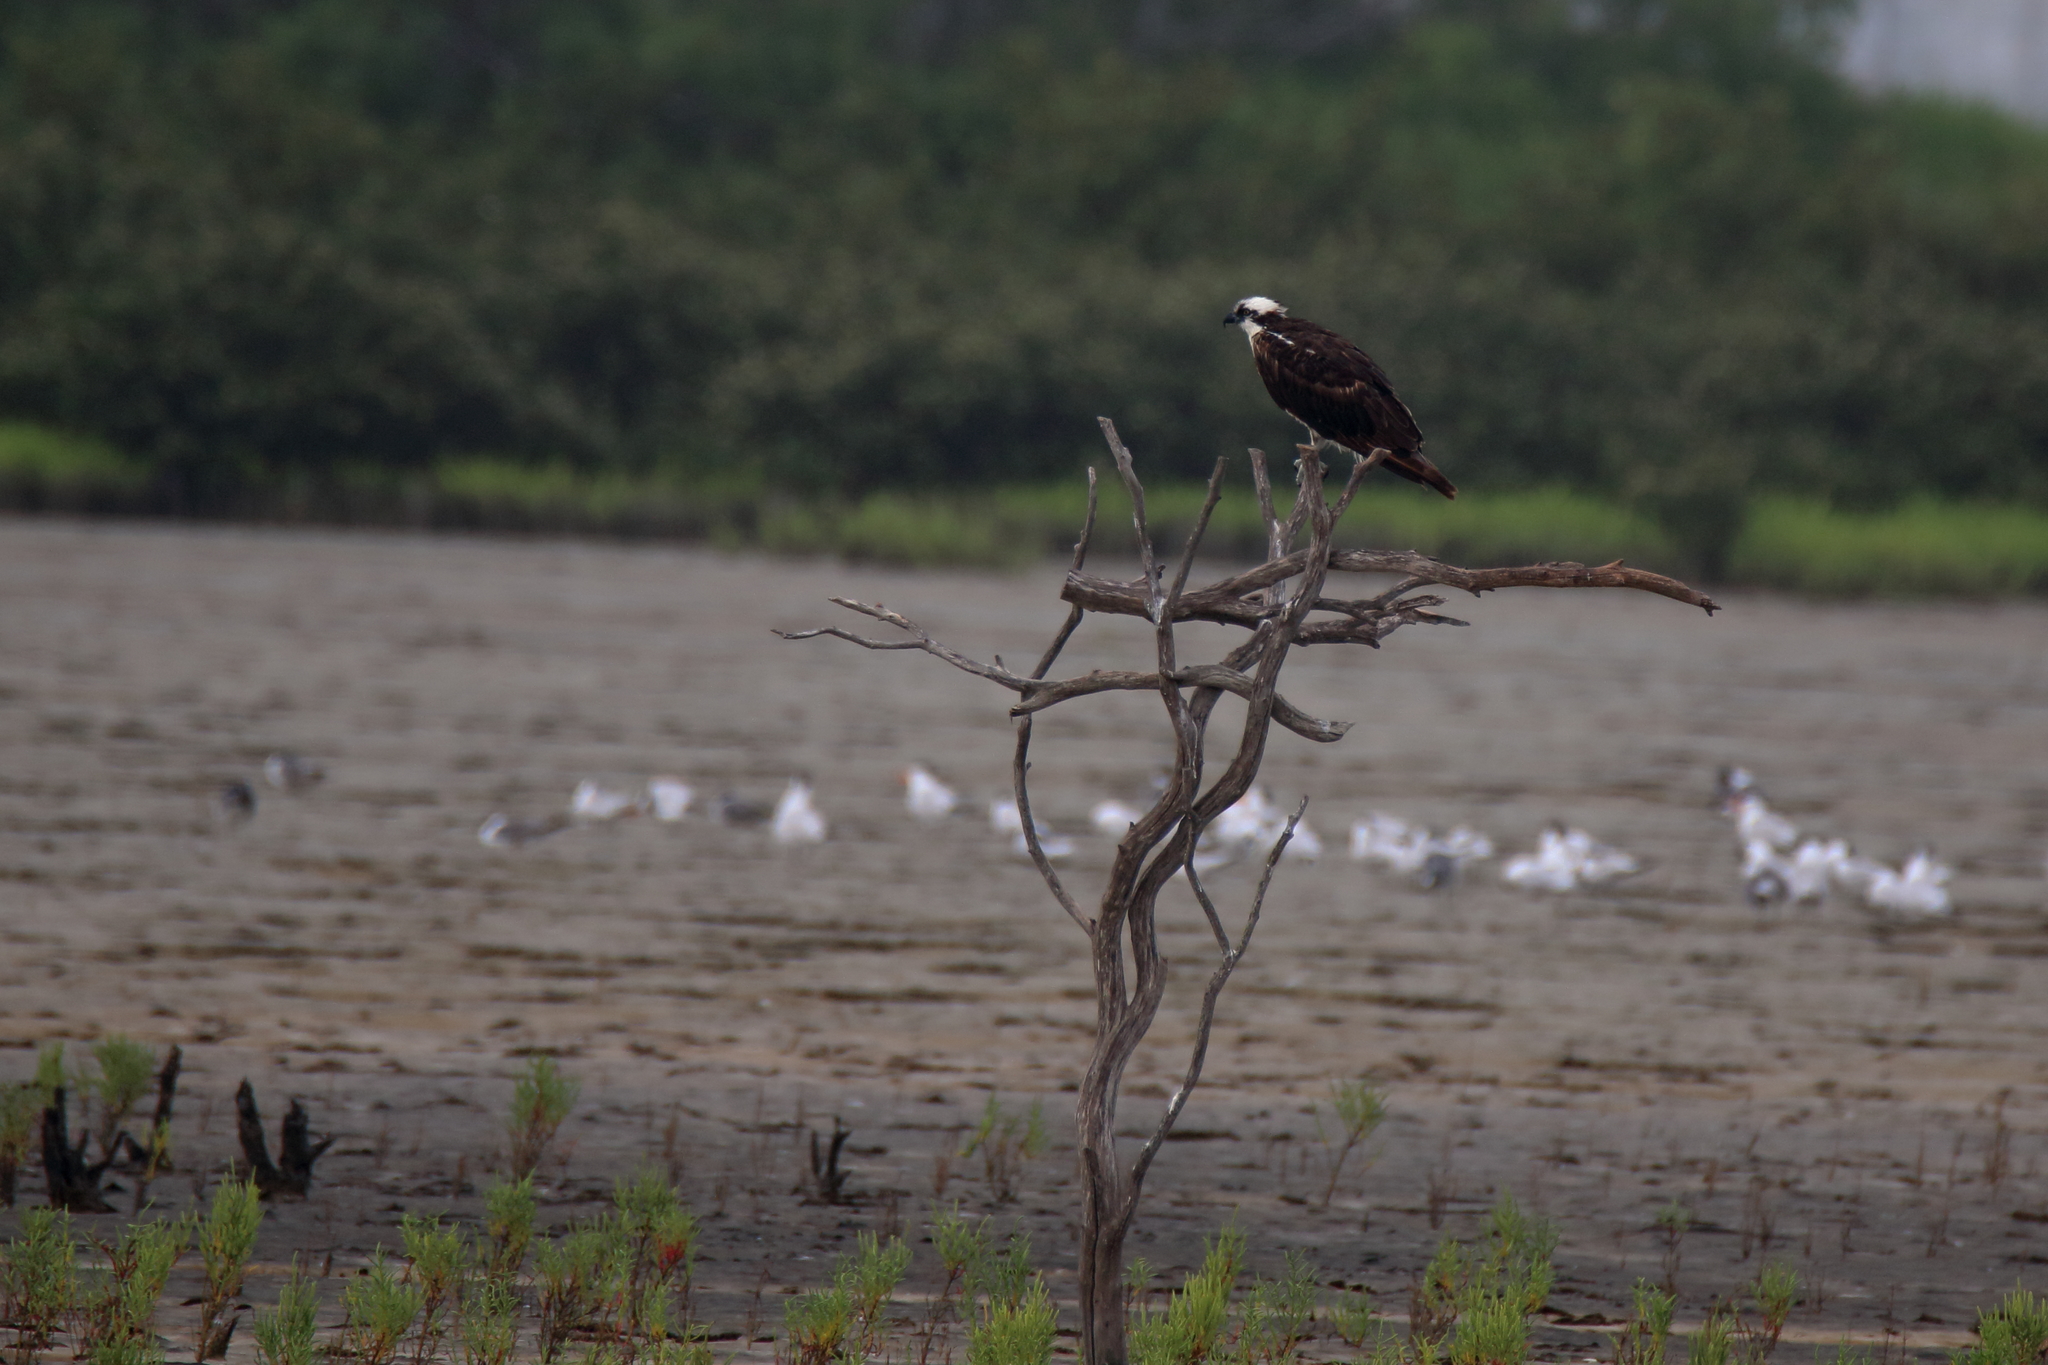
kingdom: Animalia
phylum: Chordata
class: Aves
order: Accipitriformes
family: Pandionidae
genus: Pandion
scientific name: Pandion haliaetus
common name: Osprey
